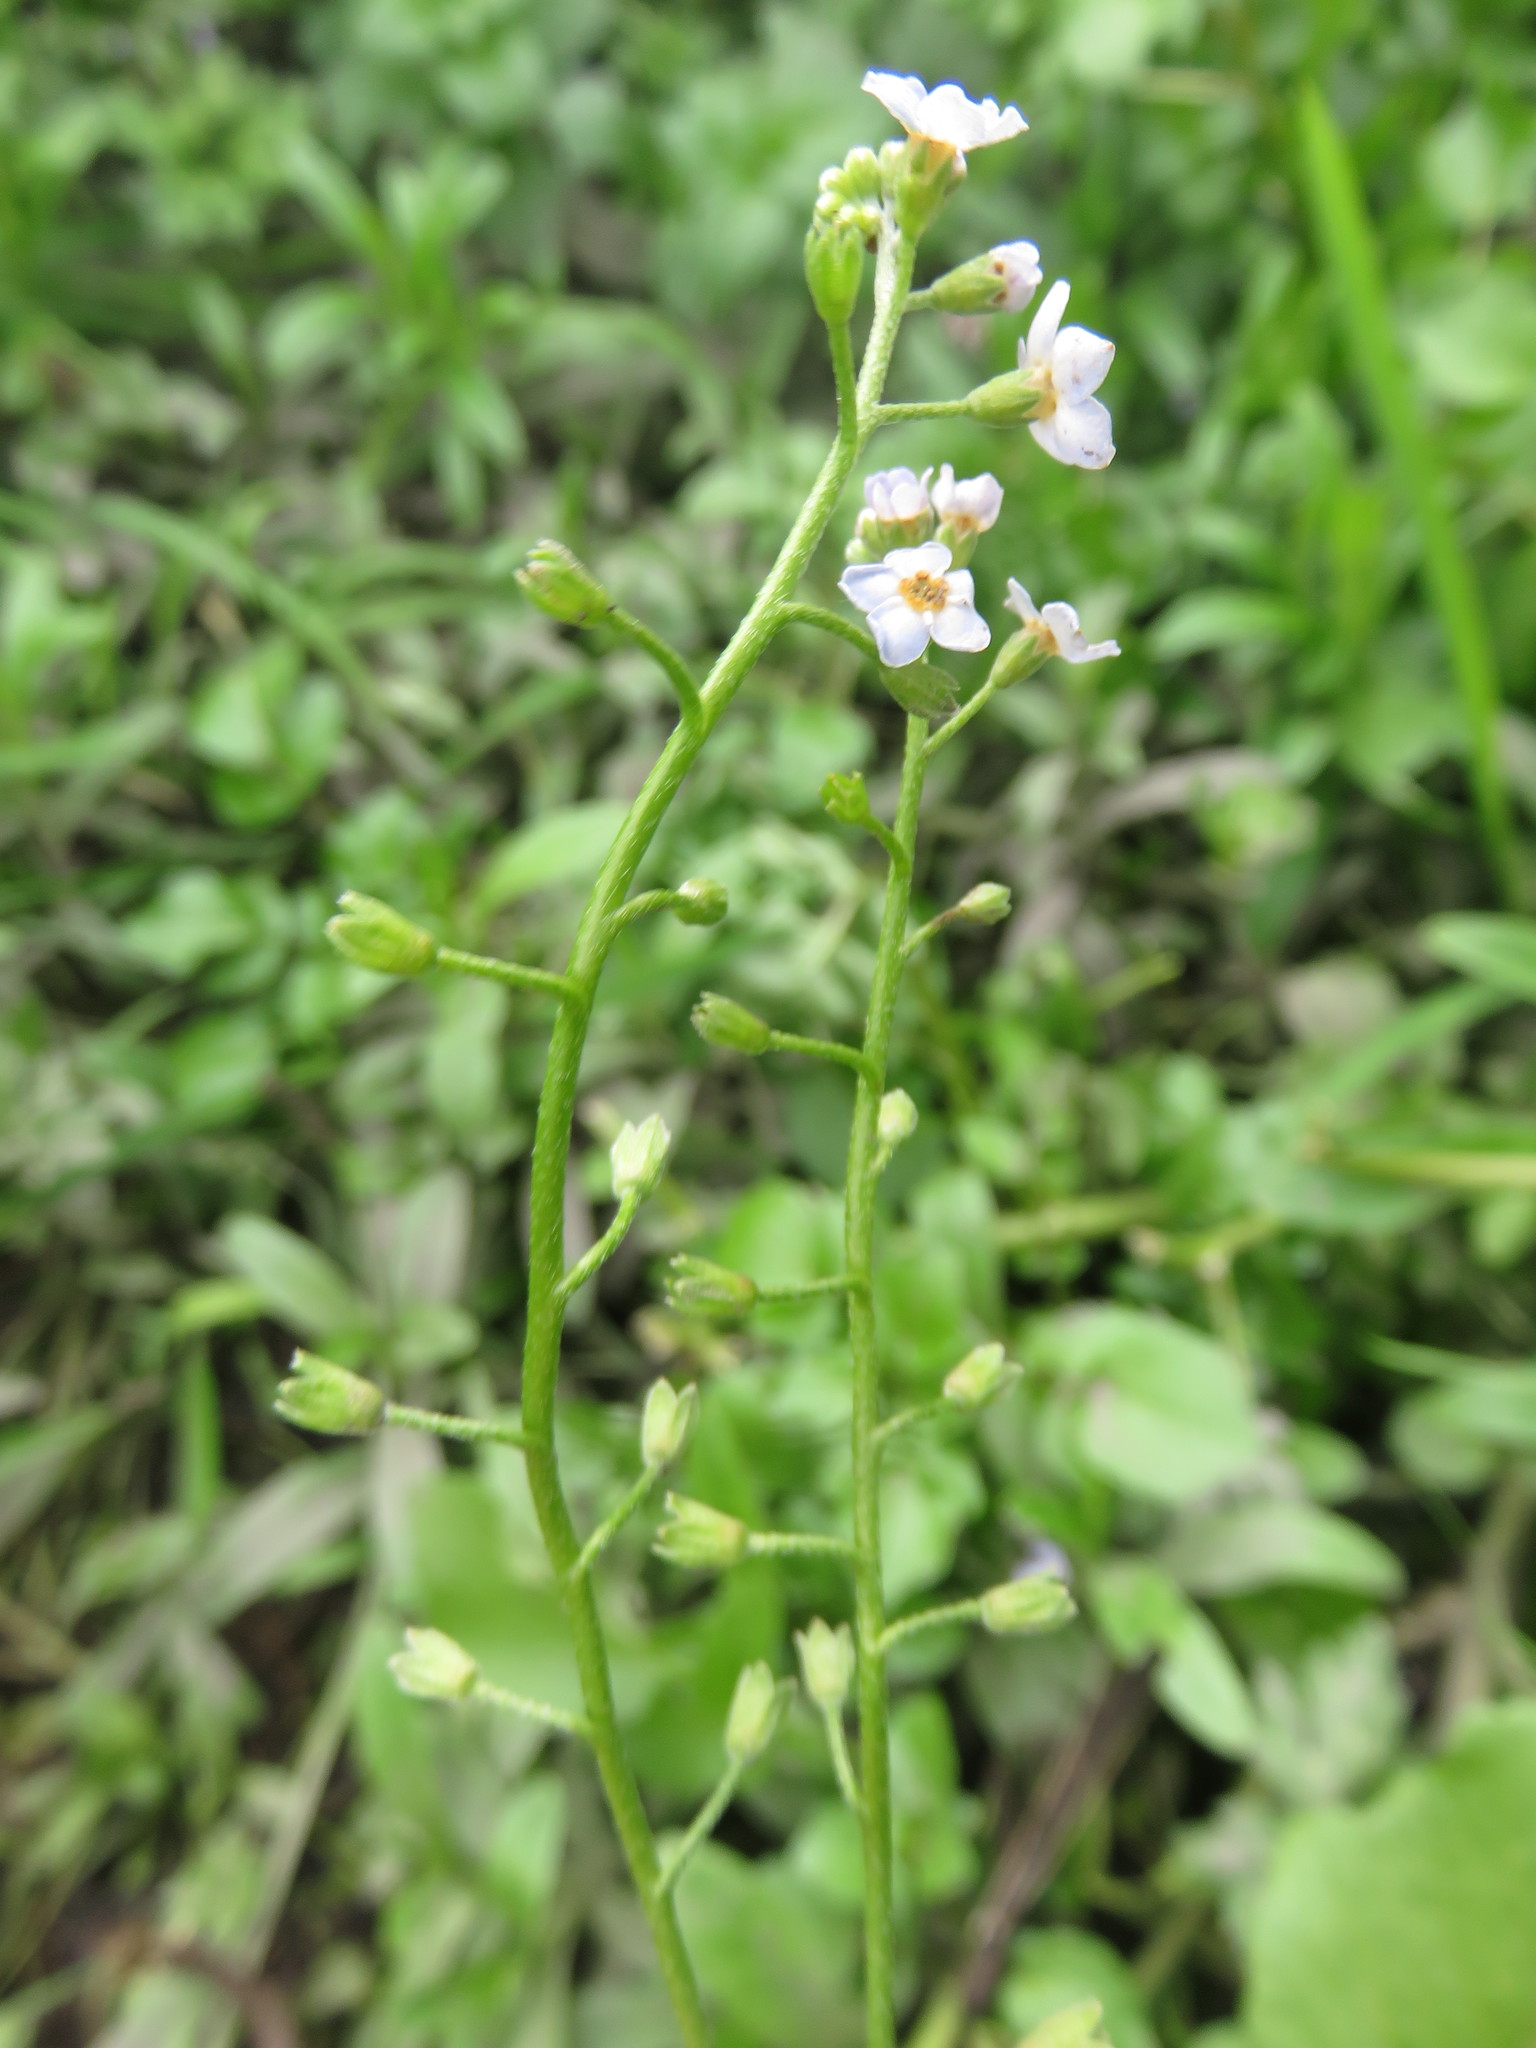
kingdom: Plantae
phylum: Tracheophyta
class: Magnoliopsida
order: Boraginales
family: Boraginaceae
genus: Myosotis
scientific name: Myosotis scorpioides
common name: Water forget-me-not
